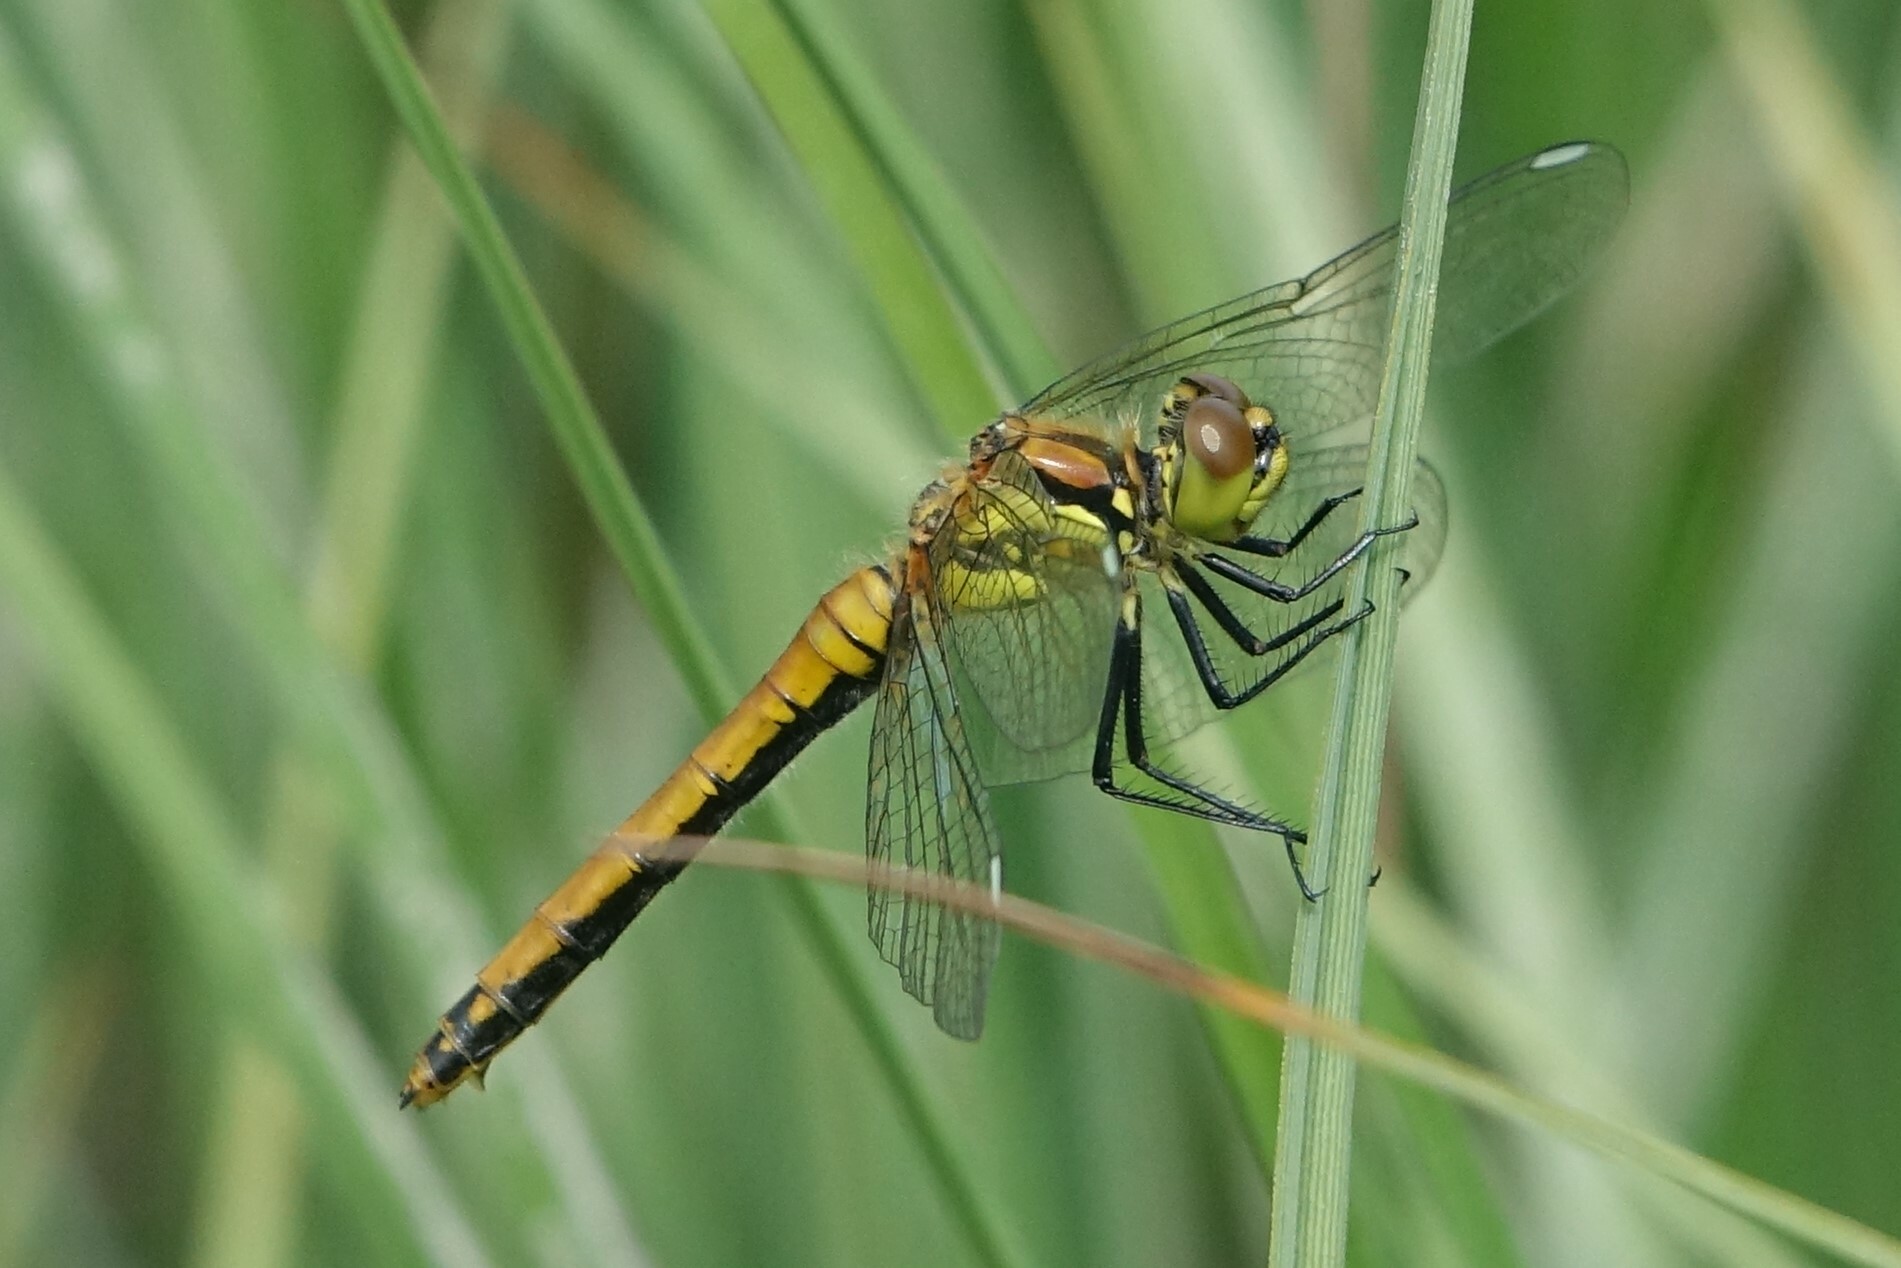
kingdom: Animalia
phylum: Arthropoda
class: Insecta
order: Odonata
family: Libellulidae
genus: Sympetrum
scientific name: Sympetrum danae
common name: Black darter
